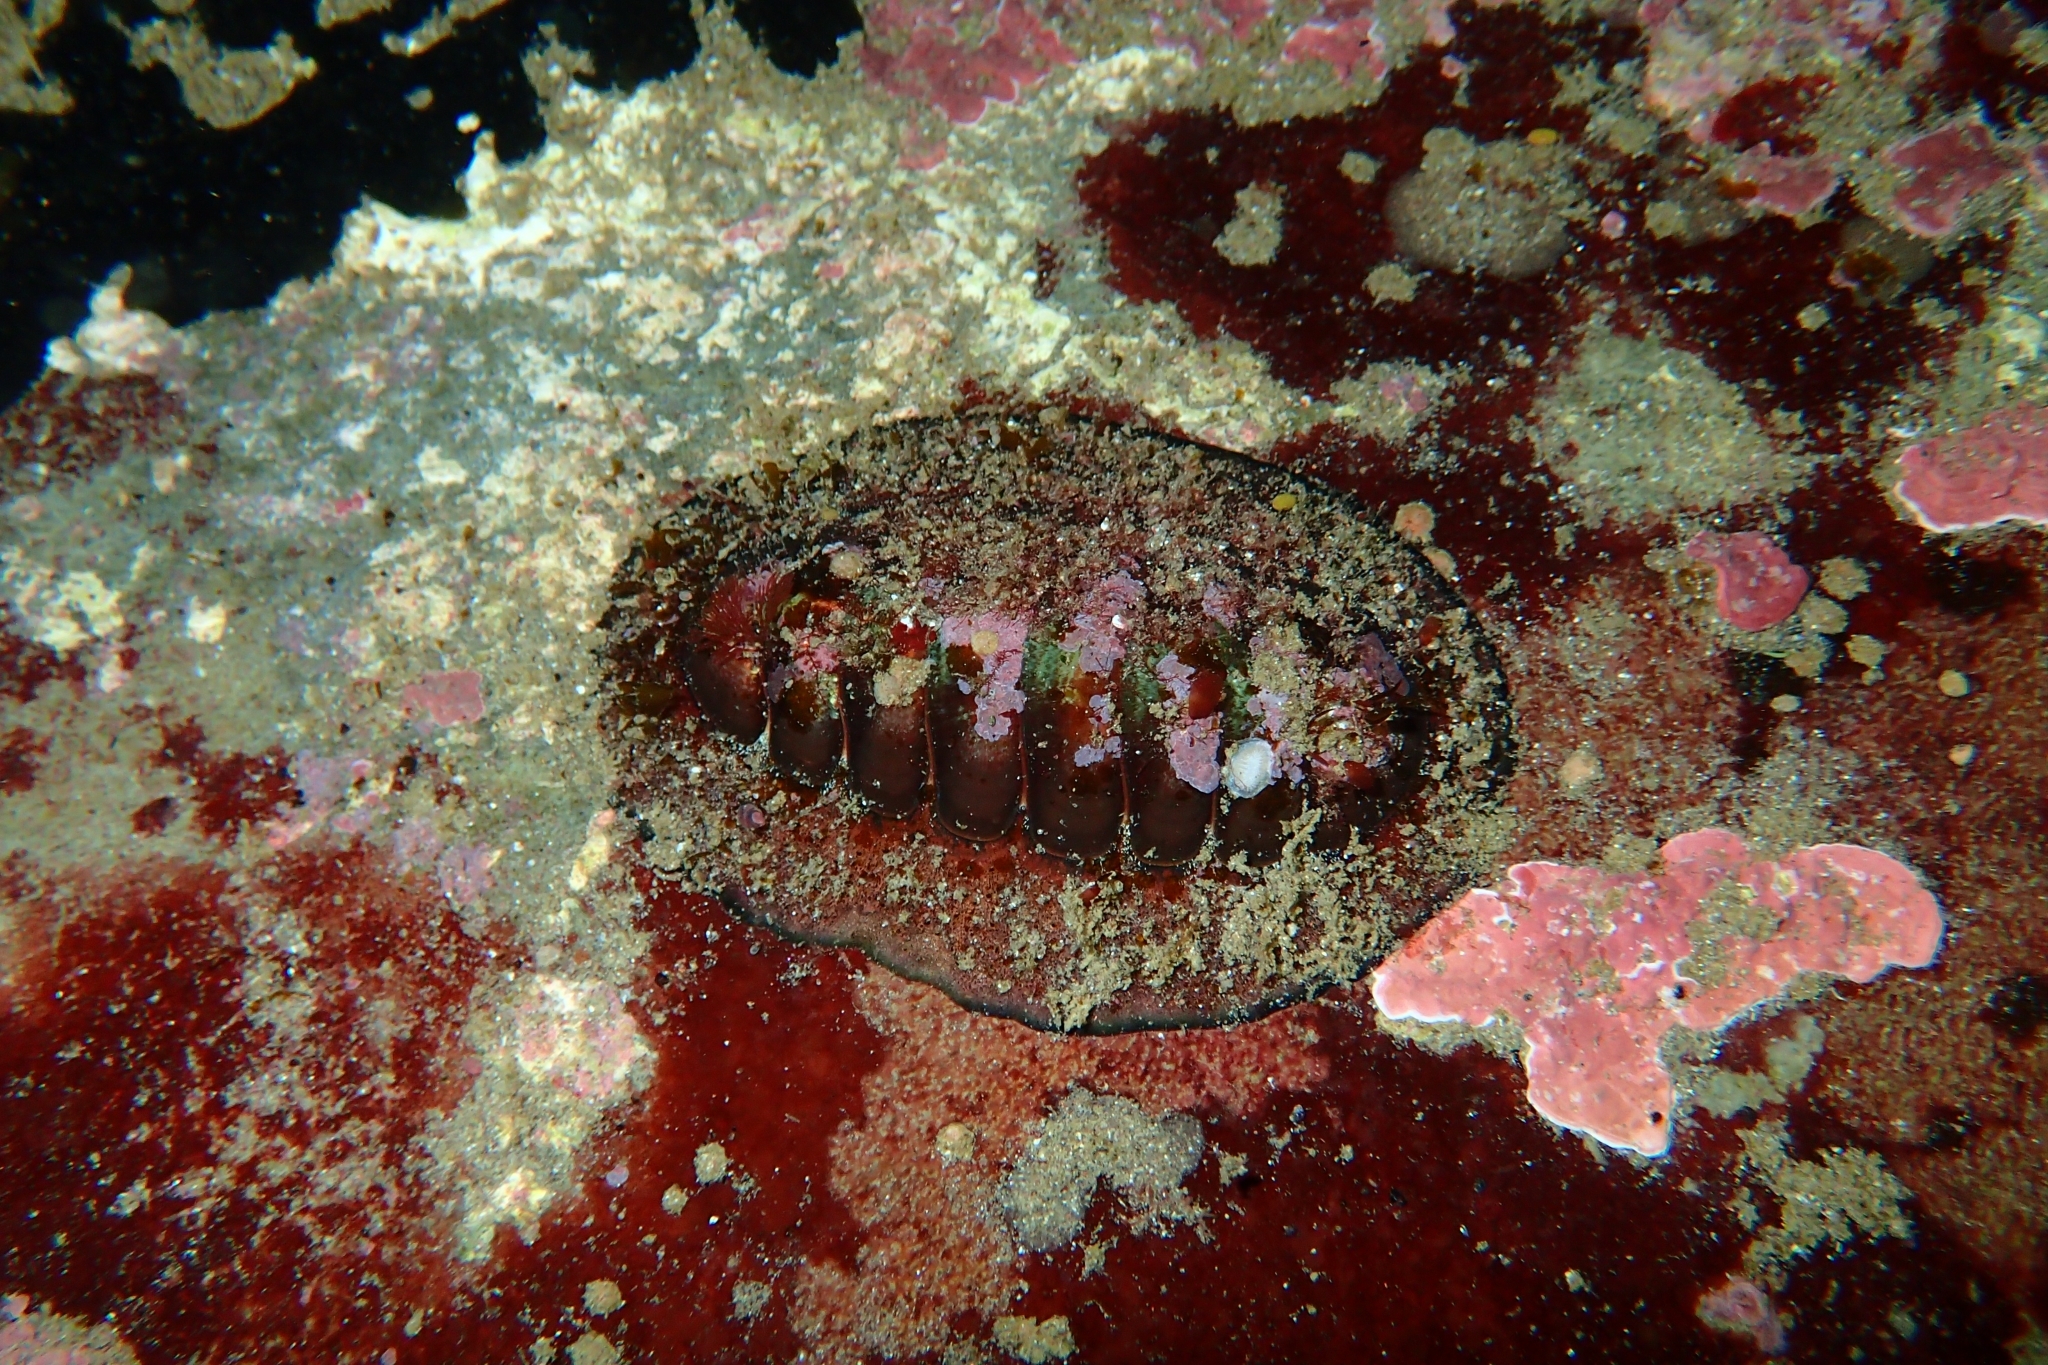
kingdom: Animalia
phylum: Mollusca
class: Polyplacophora
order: Callochitonida
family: Callochitonidae
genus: Eudoxochiton
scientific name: Eudoxochiton nobilis
